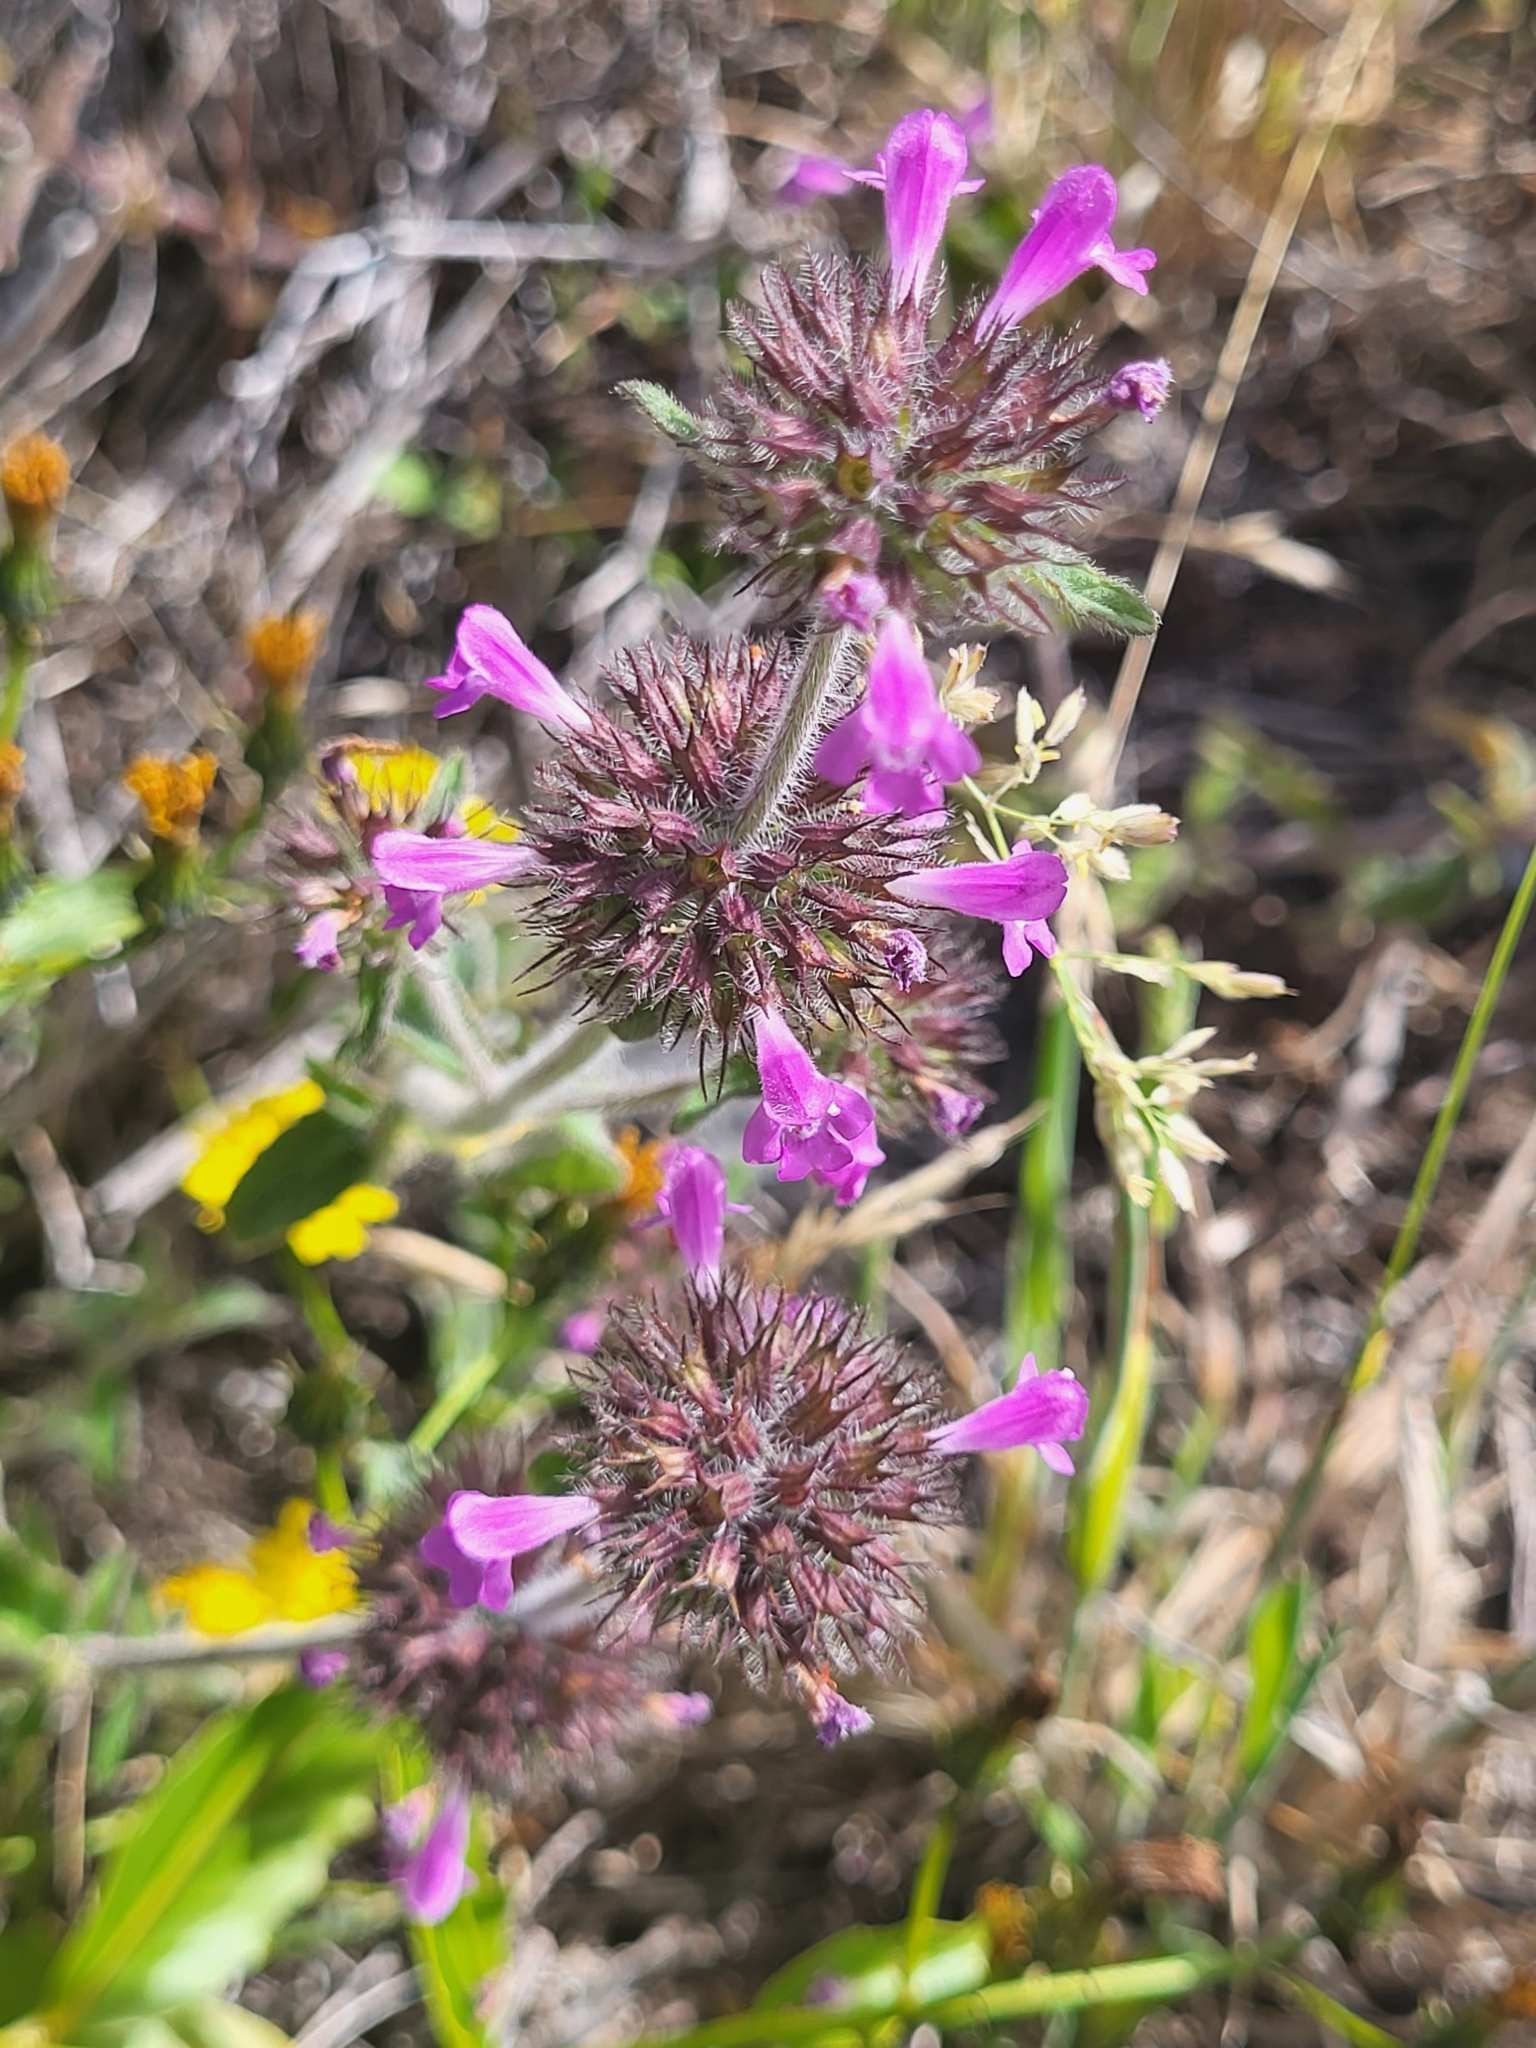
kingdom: Plantae
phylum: Tracheophyta
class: Magnoliopsida
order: Lamiales
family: Lamiaceae
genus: Clinopodium
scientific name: Clinopodium vulgare
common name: Wild basil
